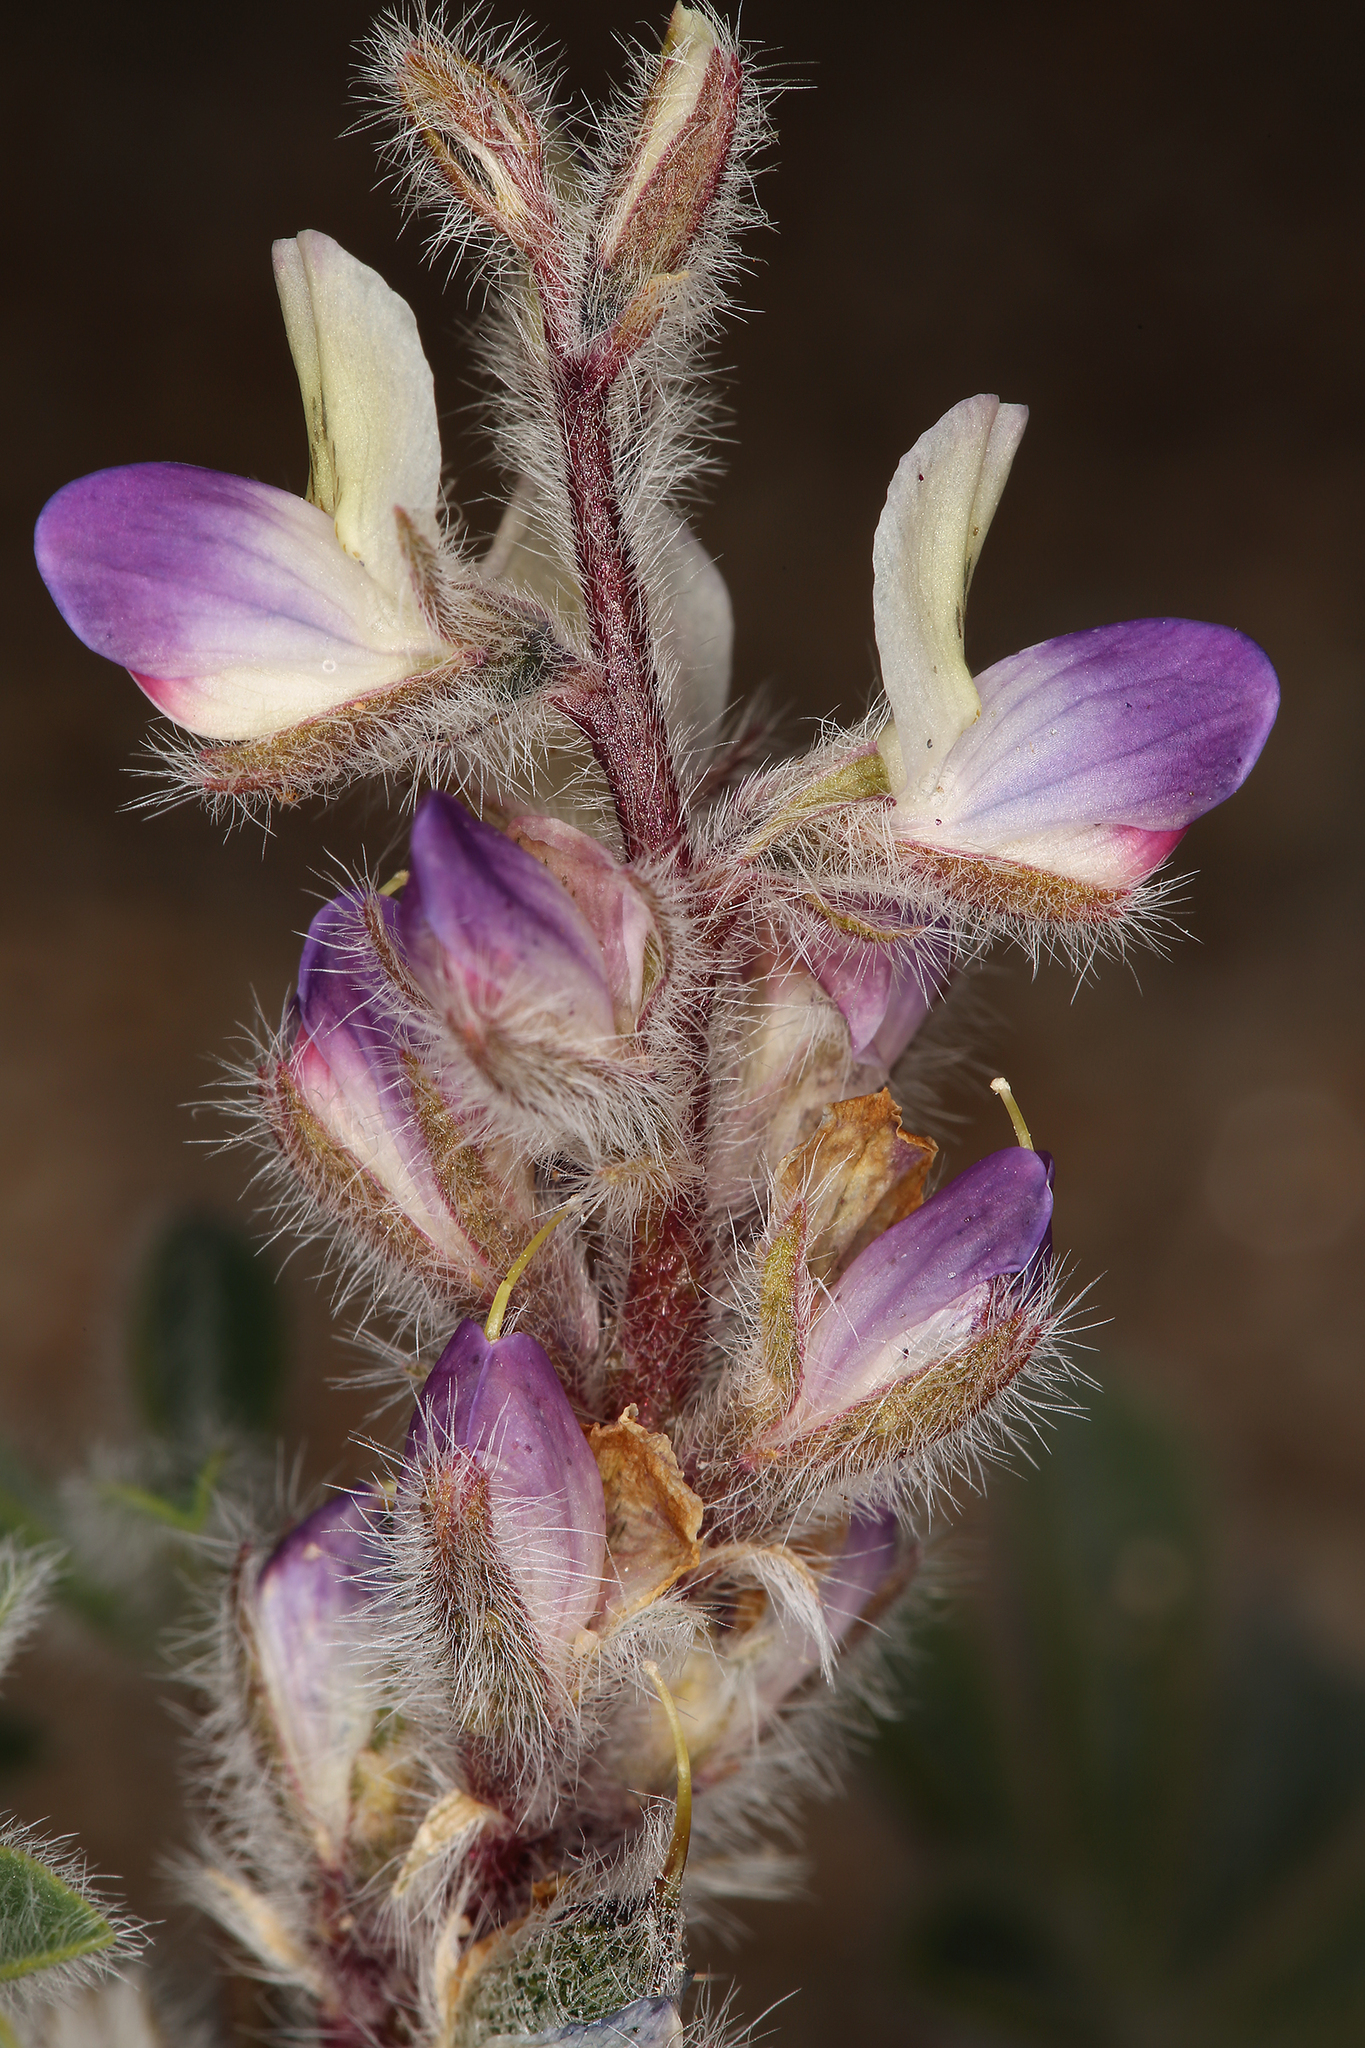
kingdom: Plantae
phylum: Tracheophyta
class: Magnoliopsida
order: Fabales
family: Fabaceae
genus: Lupinus
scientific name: Lupinus concinnus
